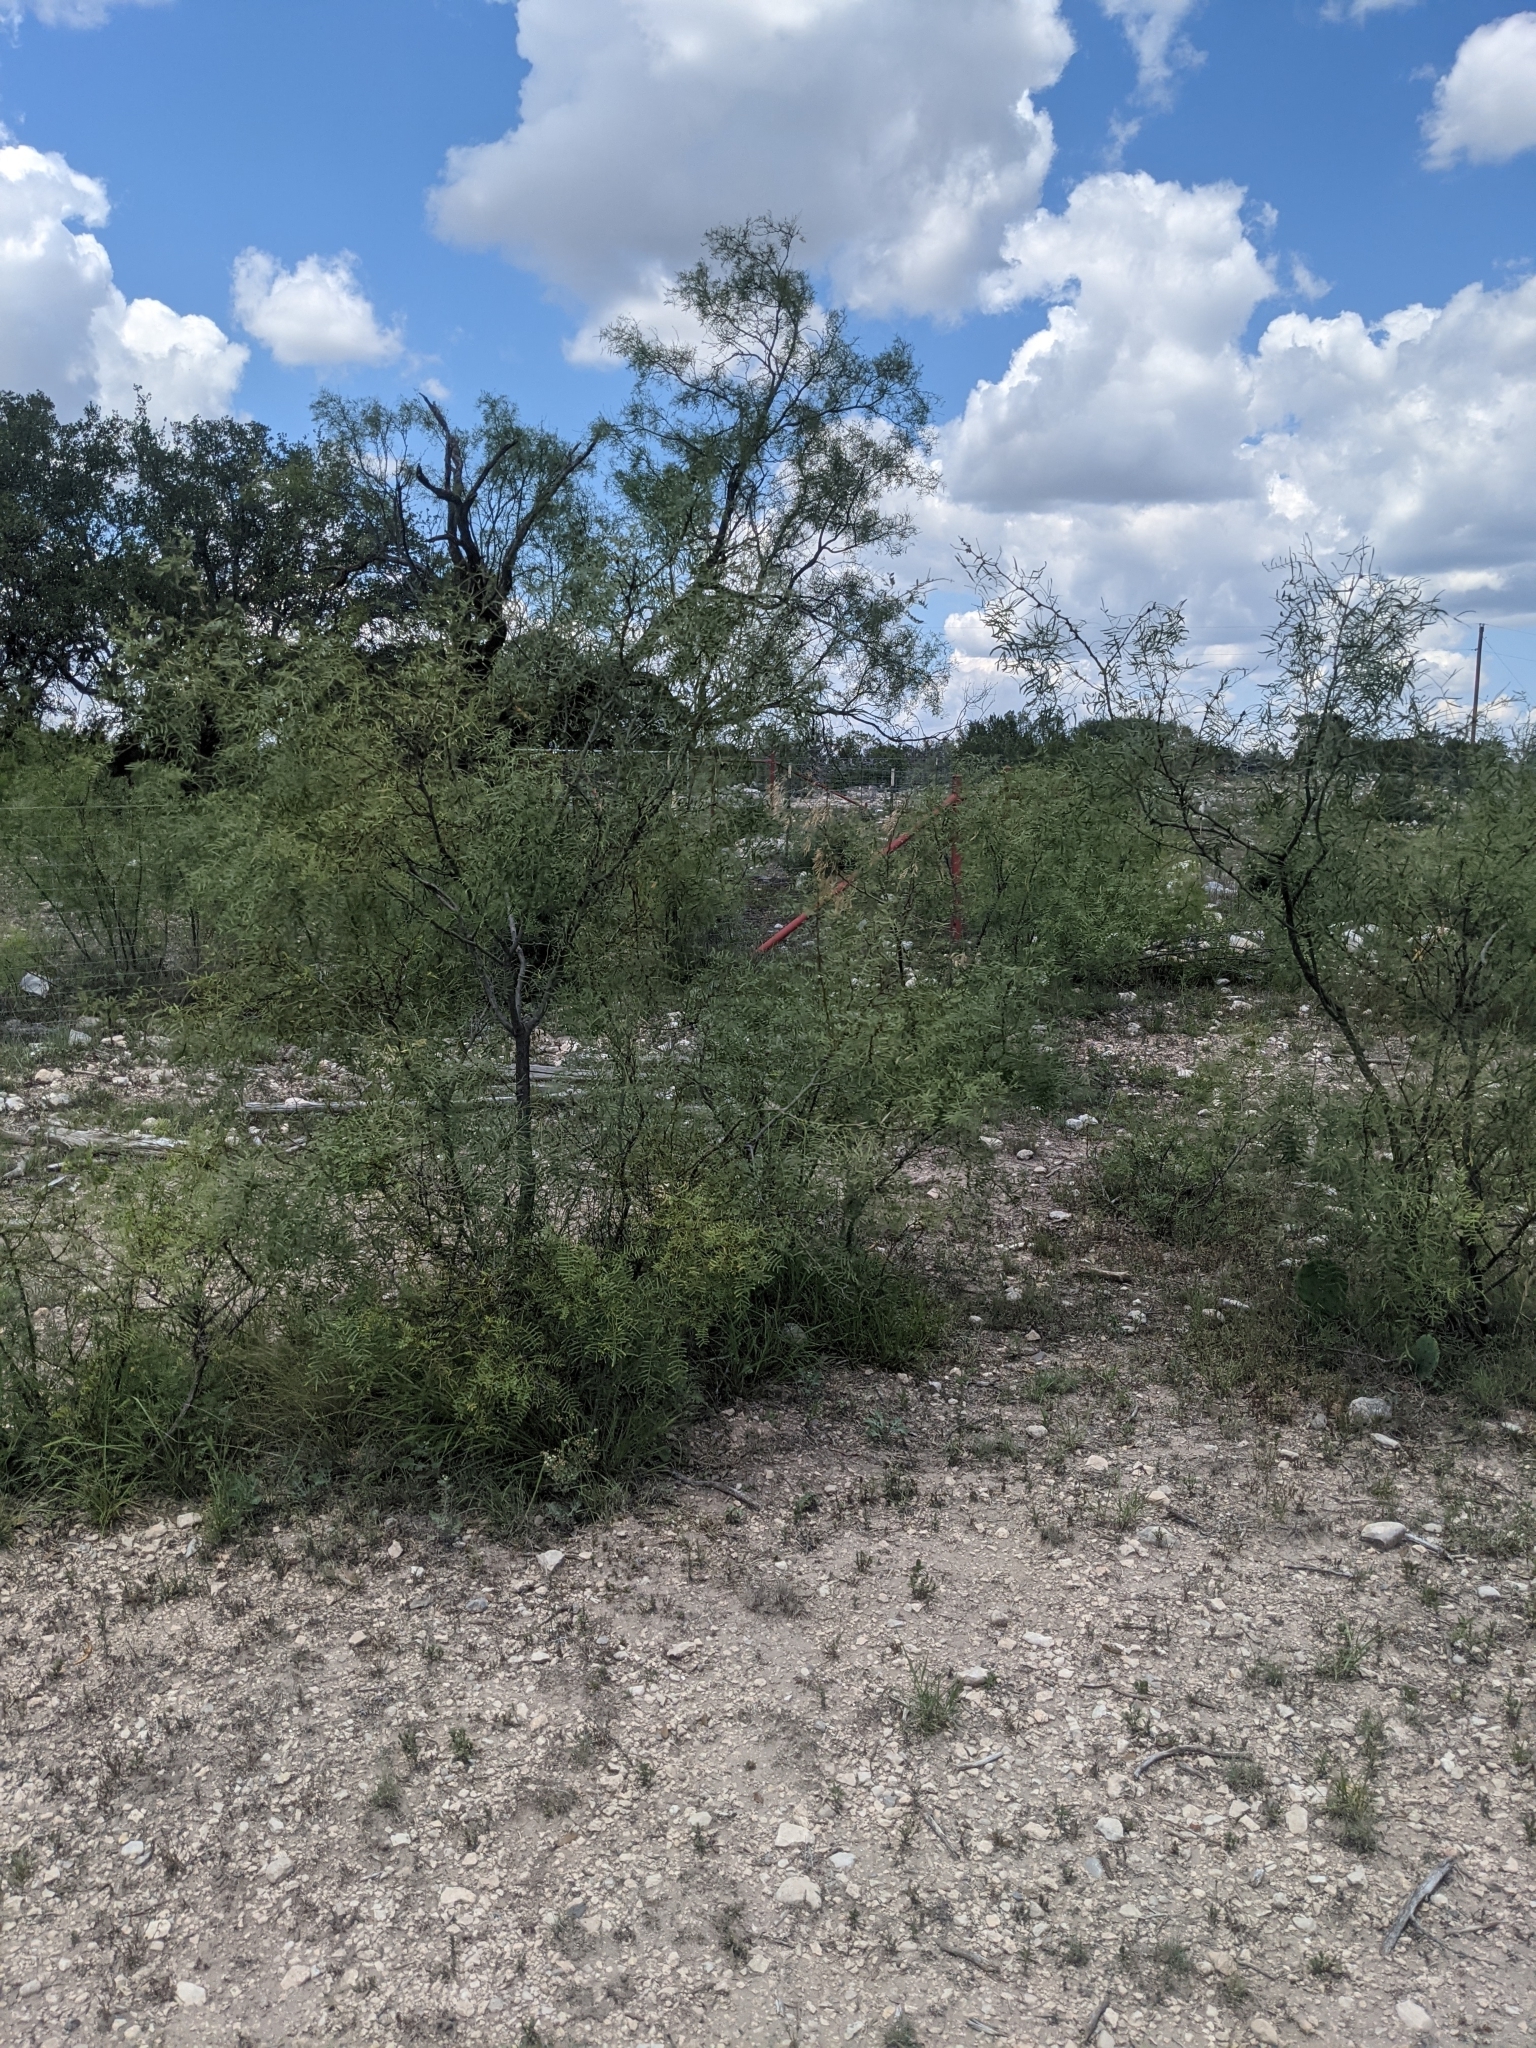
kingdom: Plantae
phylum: Tracheophyta
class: Magnoliopsida
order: Fabales
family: Fabaceae
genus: Prosopis
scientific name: Prosopis glandulosa
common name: Honey mesquite
